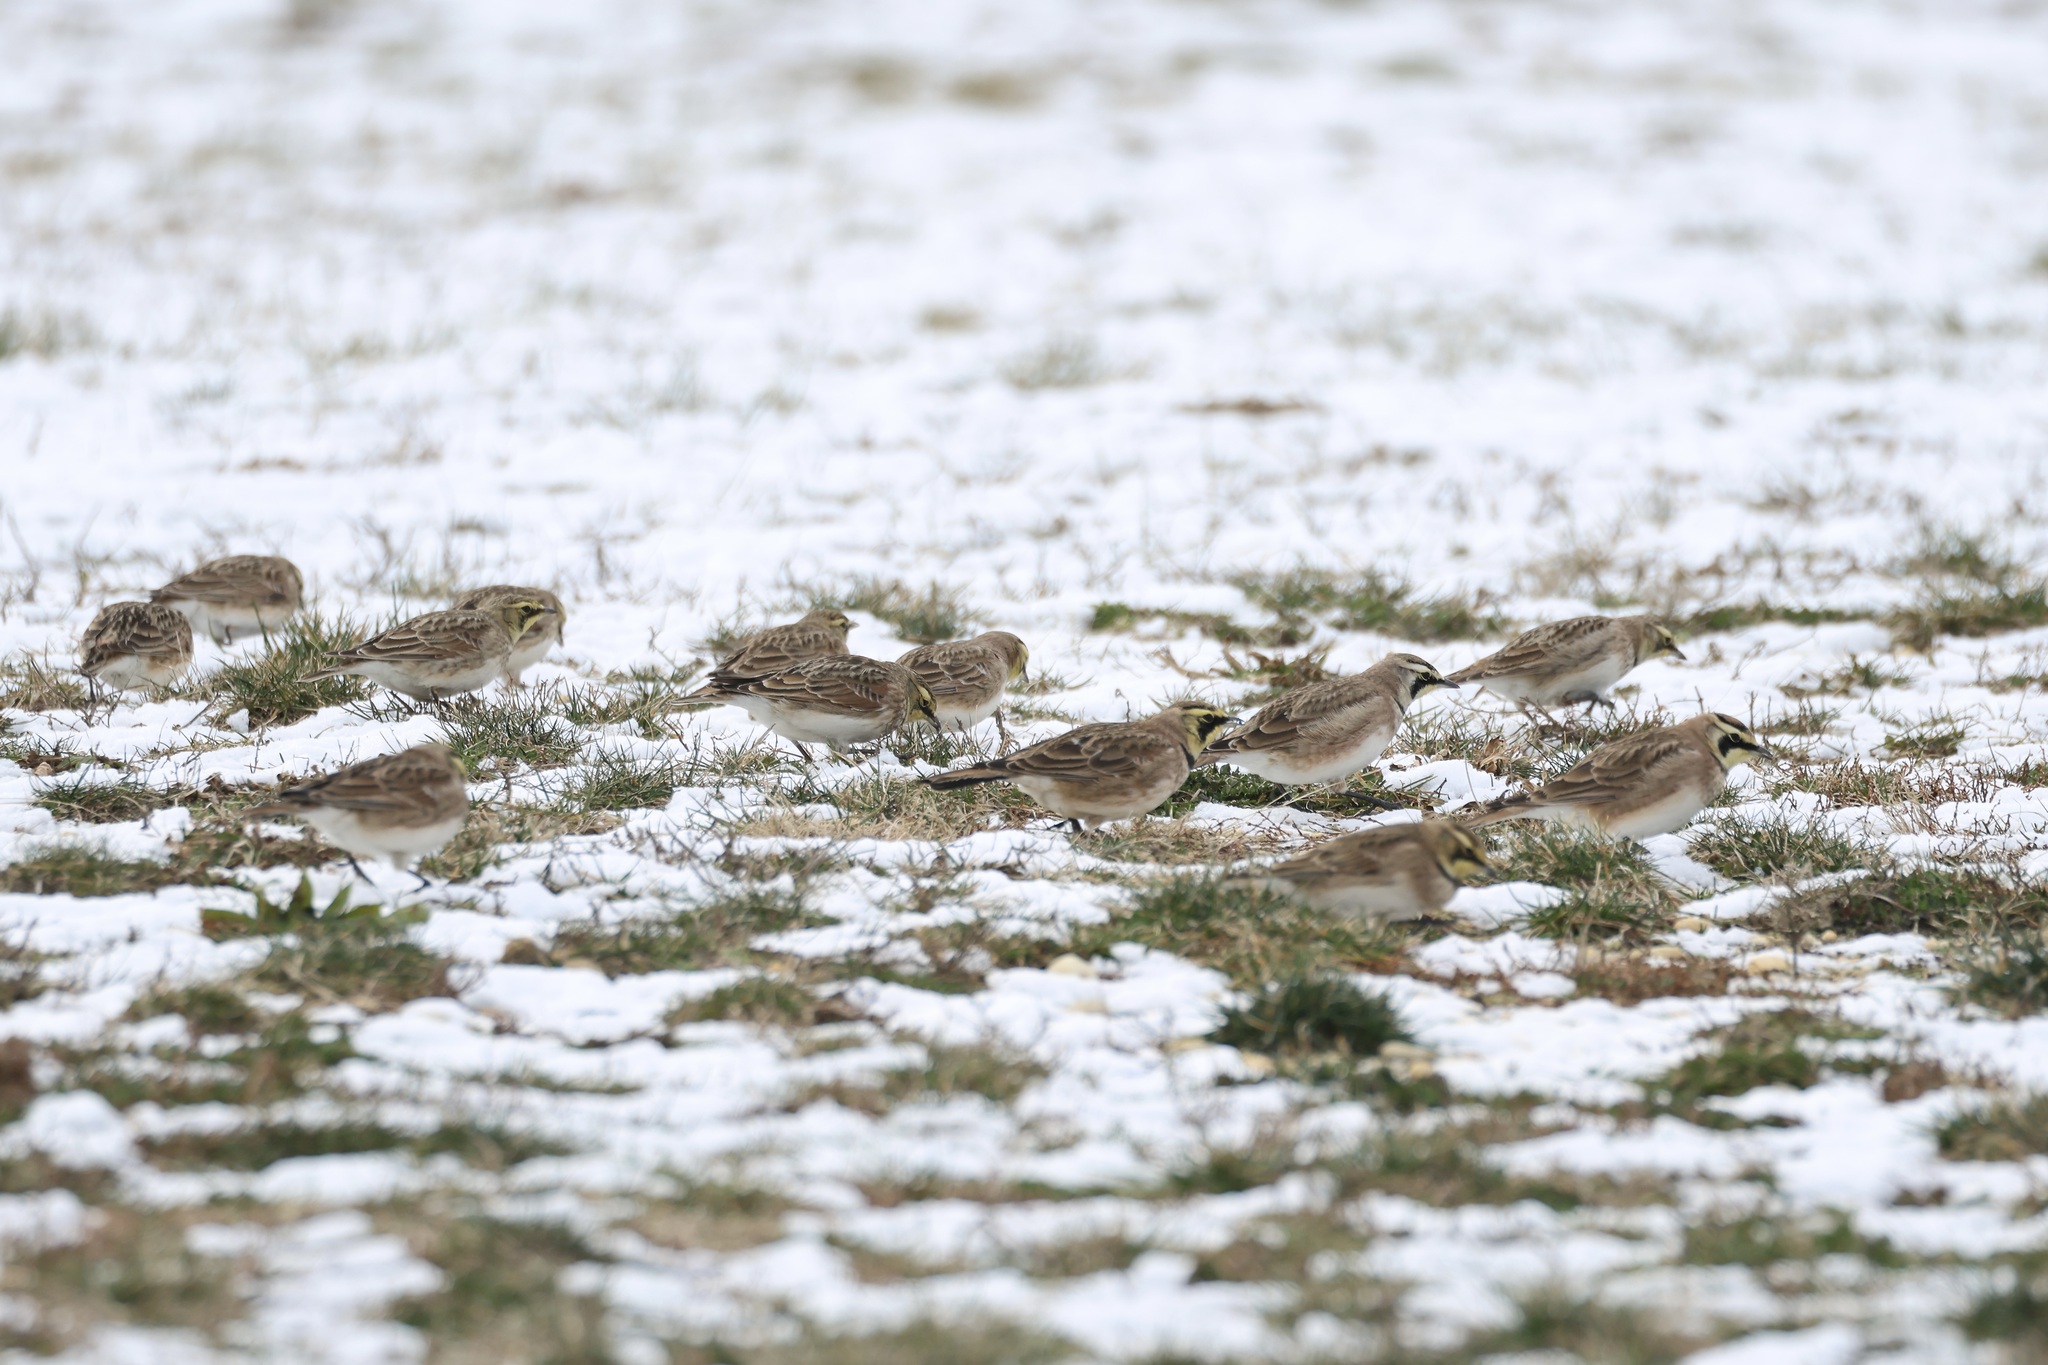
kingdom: Animalia
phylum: Chordata
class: Aves
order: Passeriformes
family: Alaudidae
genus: Eremophila
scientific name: Eremophila alpestris
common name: Horned lark
